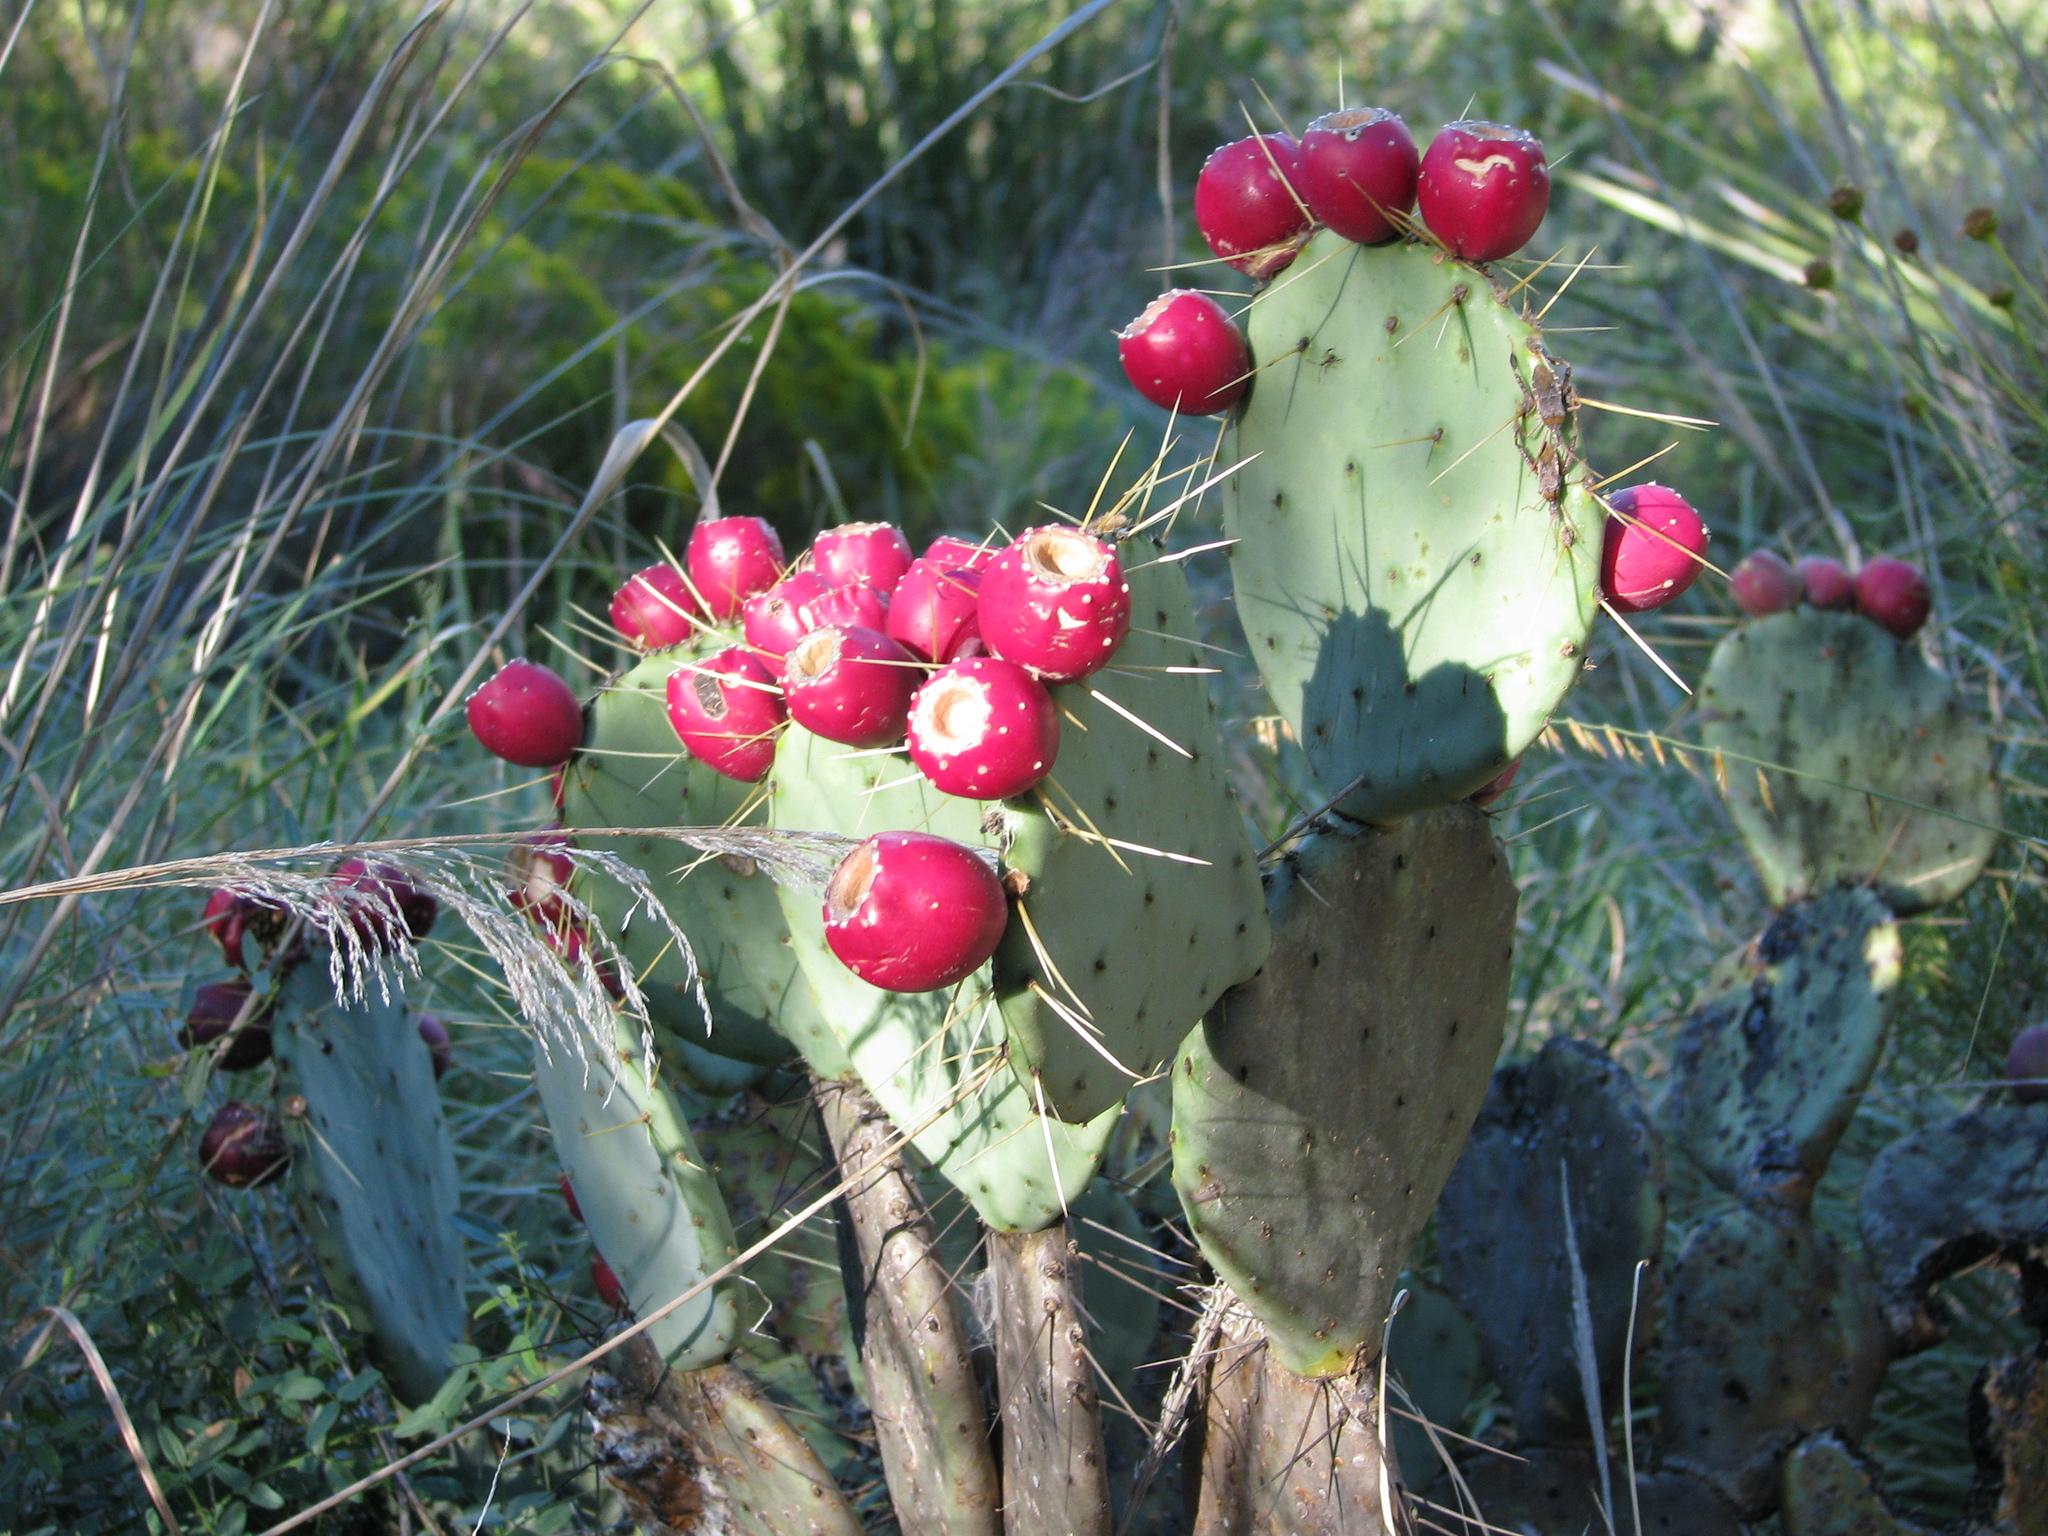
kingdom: Plantae
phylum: Tracheophyta
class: Magnoliopsida
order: Caryophyllales
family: Cactaceae
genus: Opuntia
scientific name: Opuntia chisosensis
